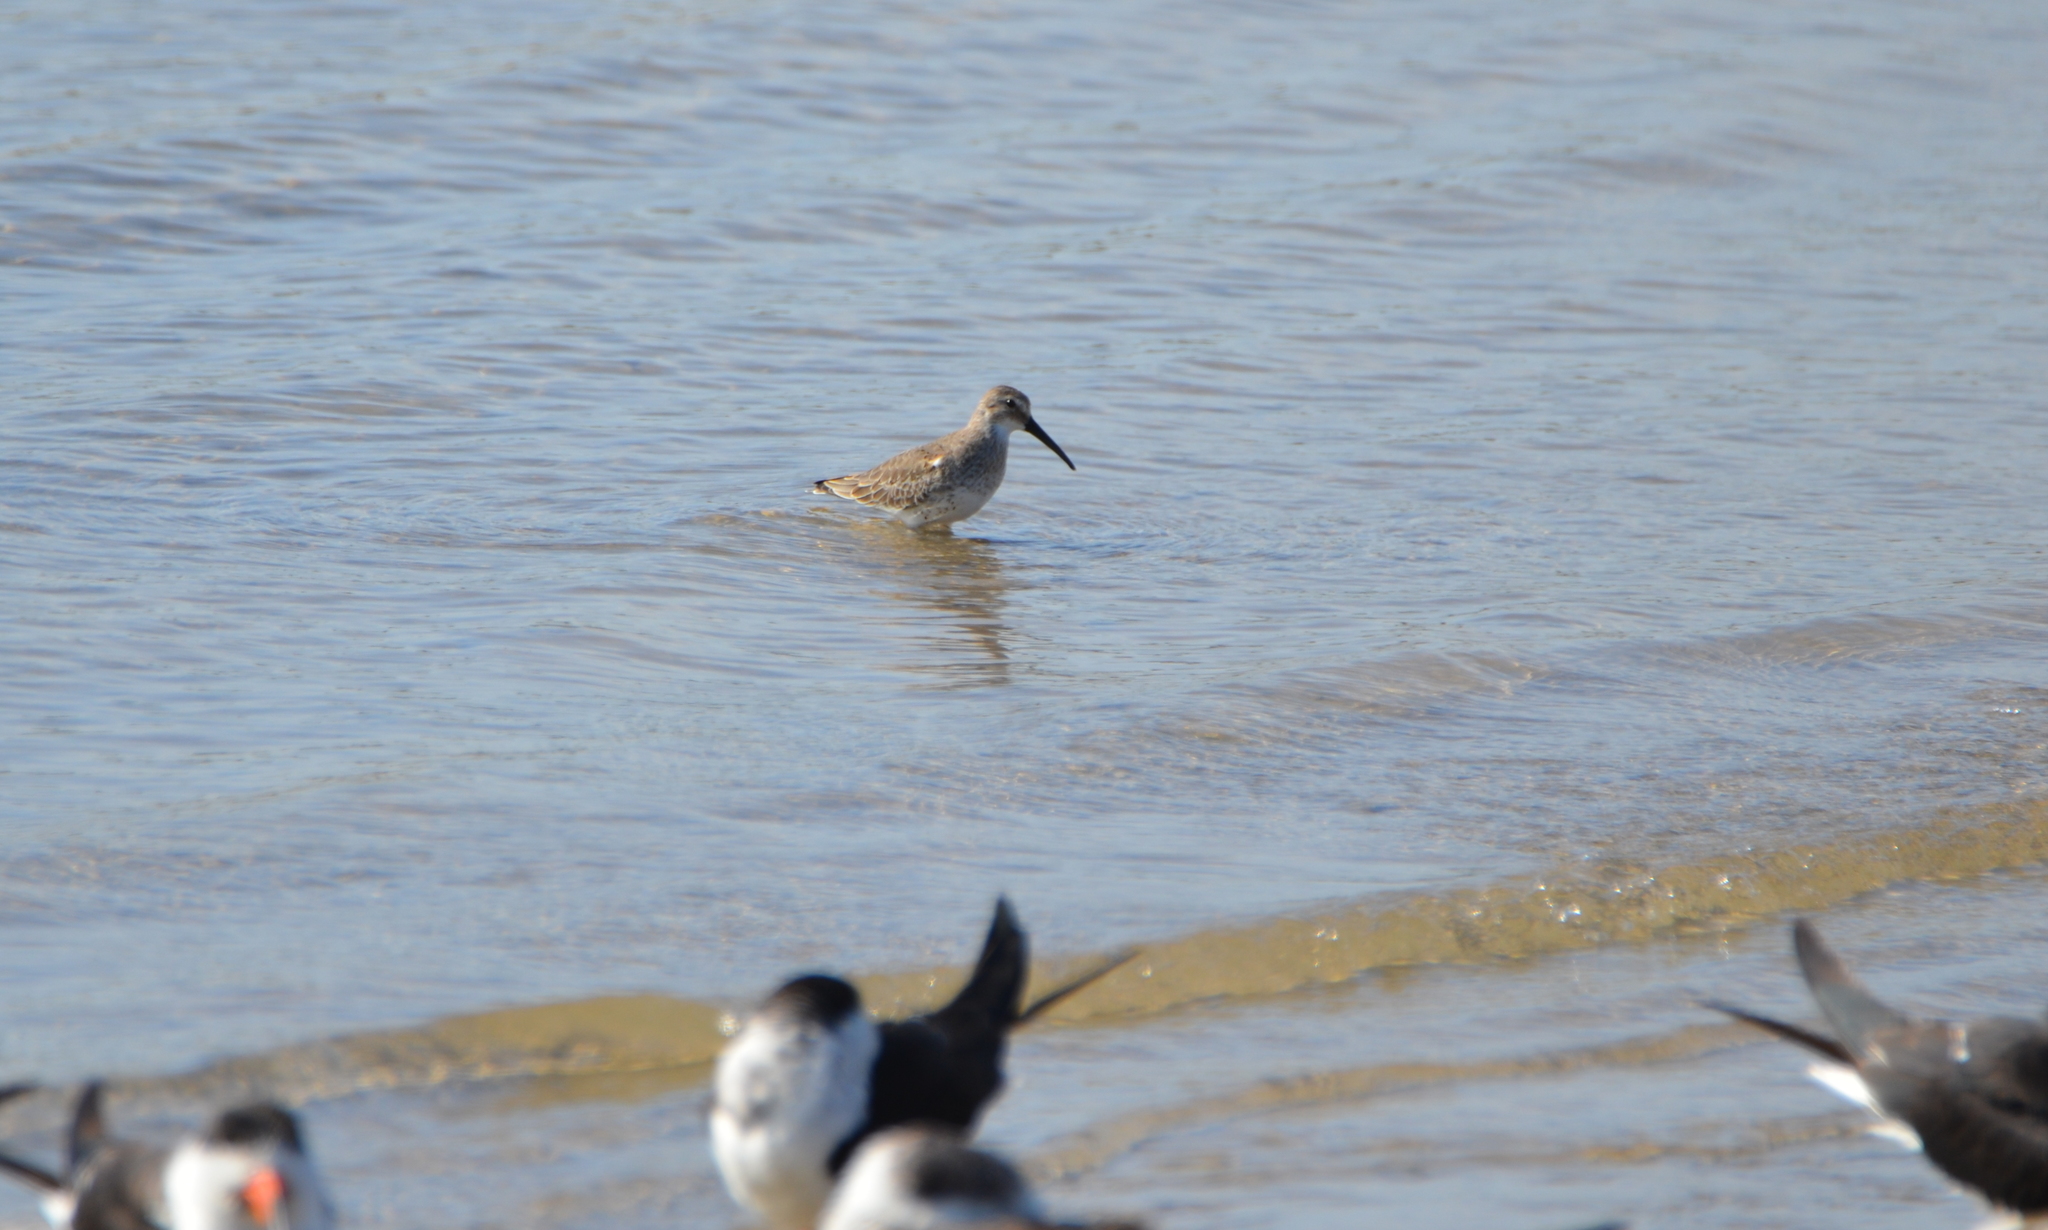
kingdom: Animalia
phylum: Chordata
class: Aves
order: Charadriiformes
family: Scolopacidae
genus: Calidris
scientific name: Calidris alpina
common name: Dunlin
